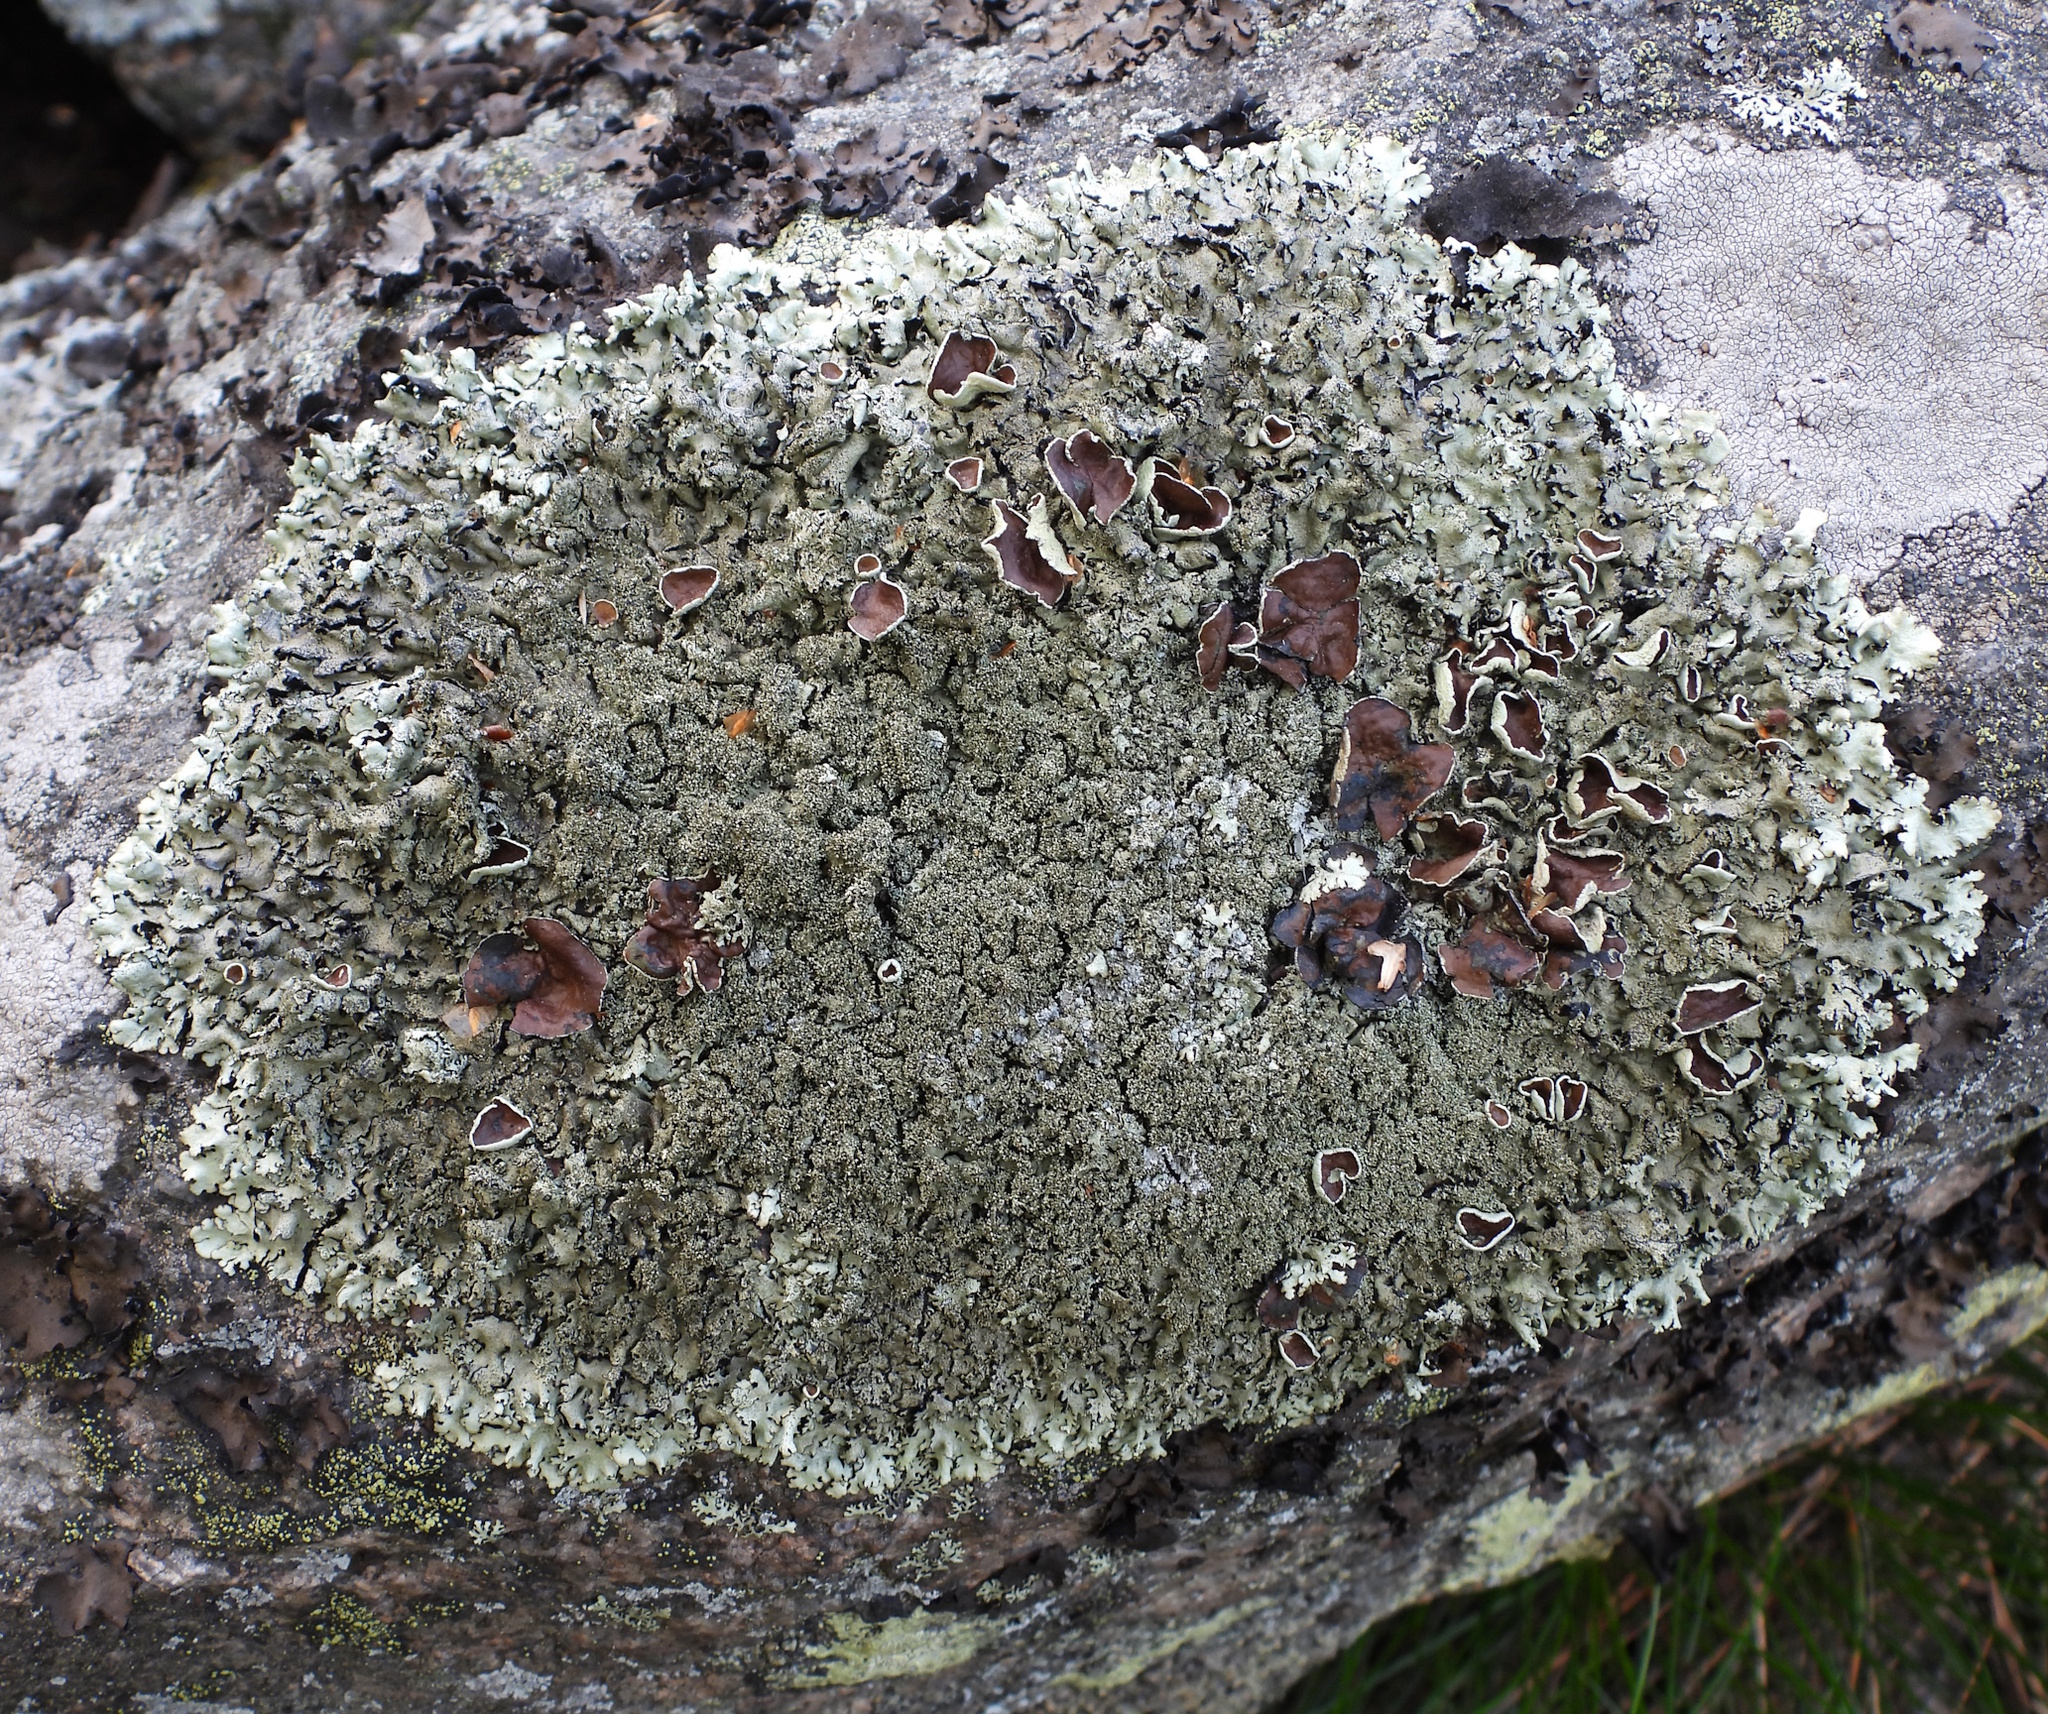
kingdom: Fungi
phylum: Ascomycota
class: Lecanoromycetes
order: Lecanorales
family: Parmeliaceae
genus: Xanthoparmelia
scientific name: Xanthoparmelia conspersa
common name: Peppered rock shield
